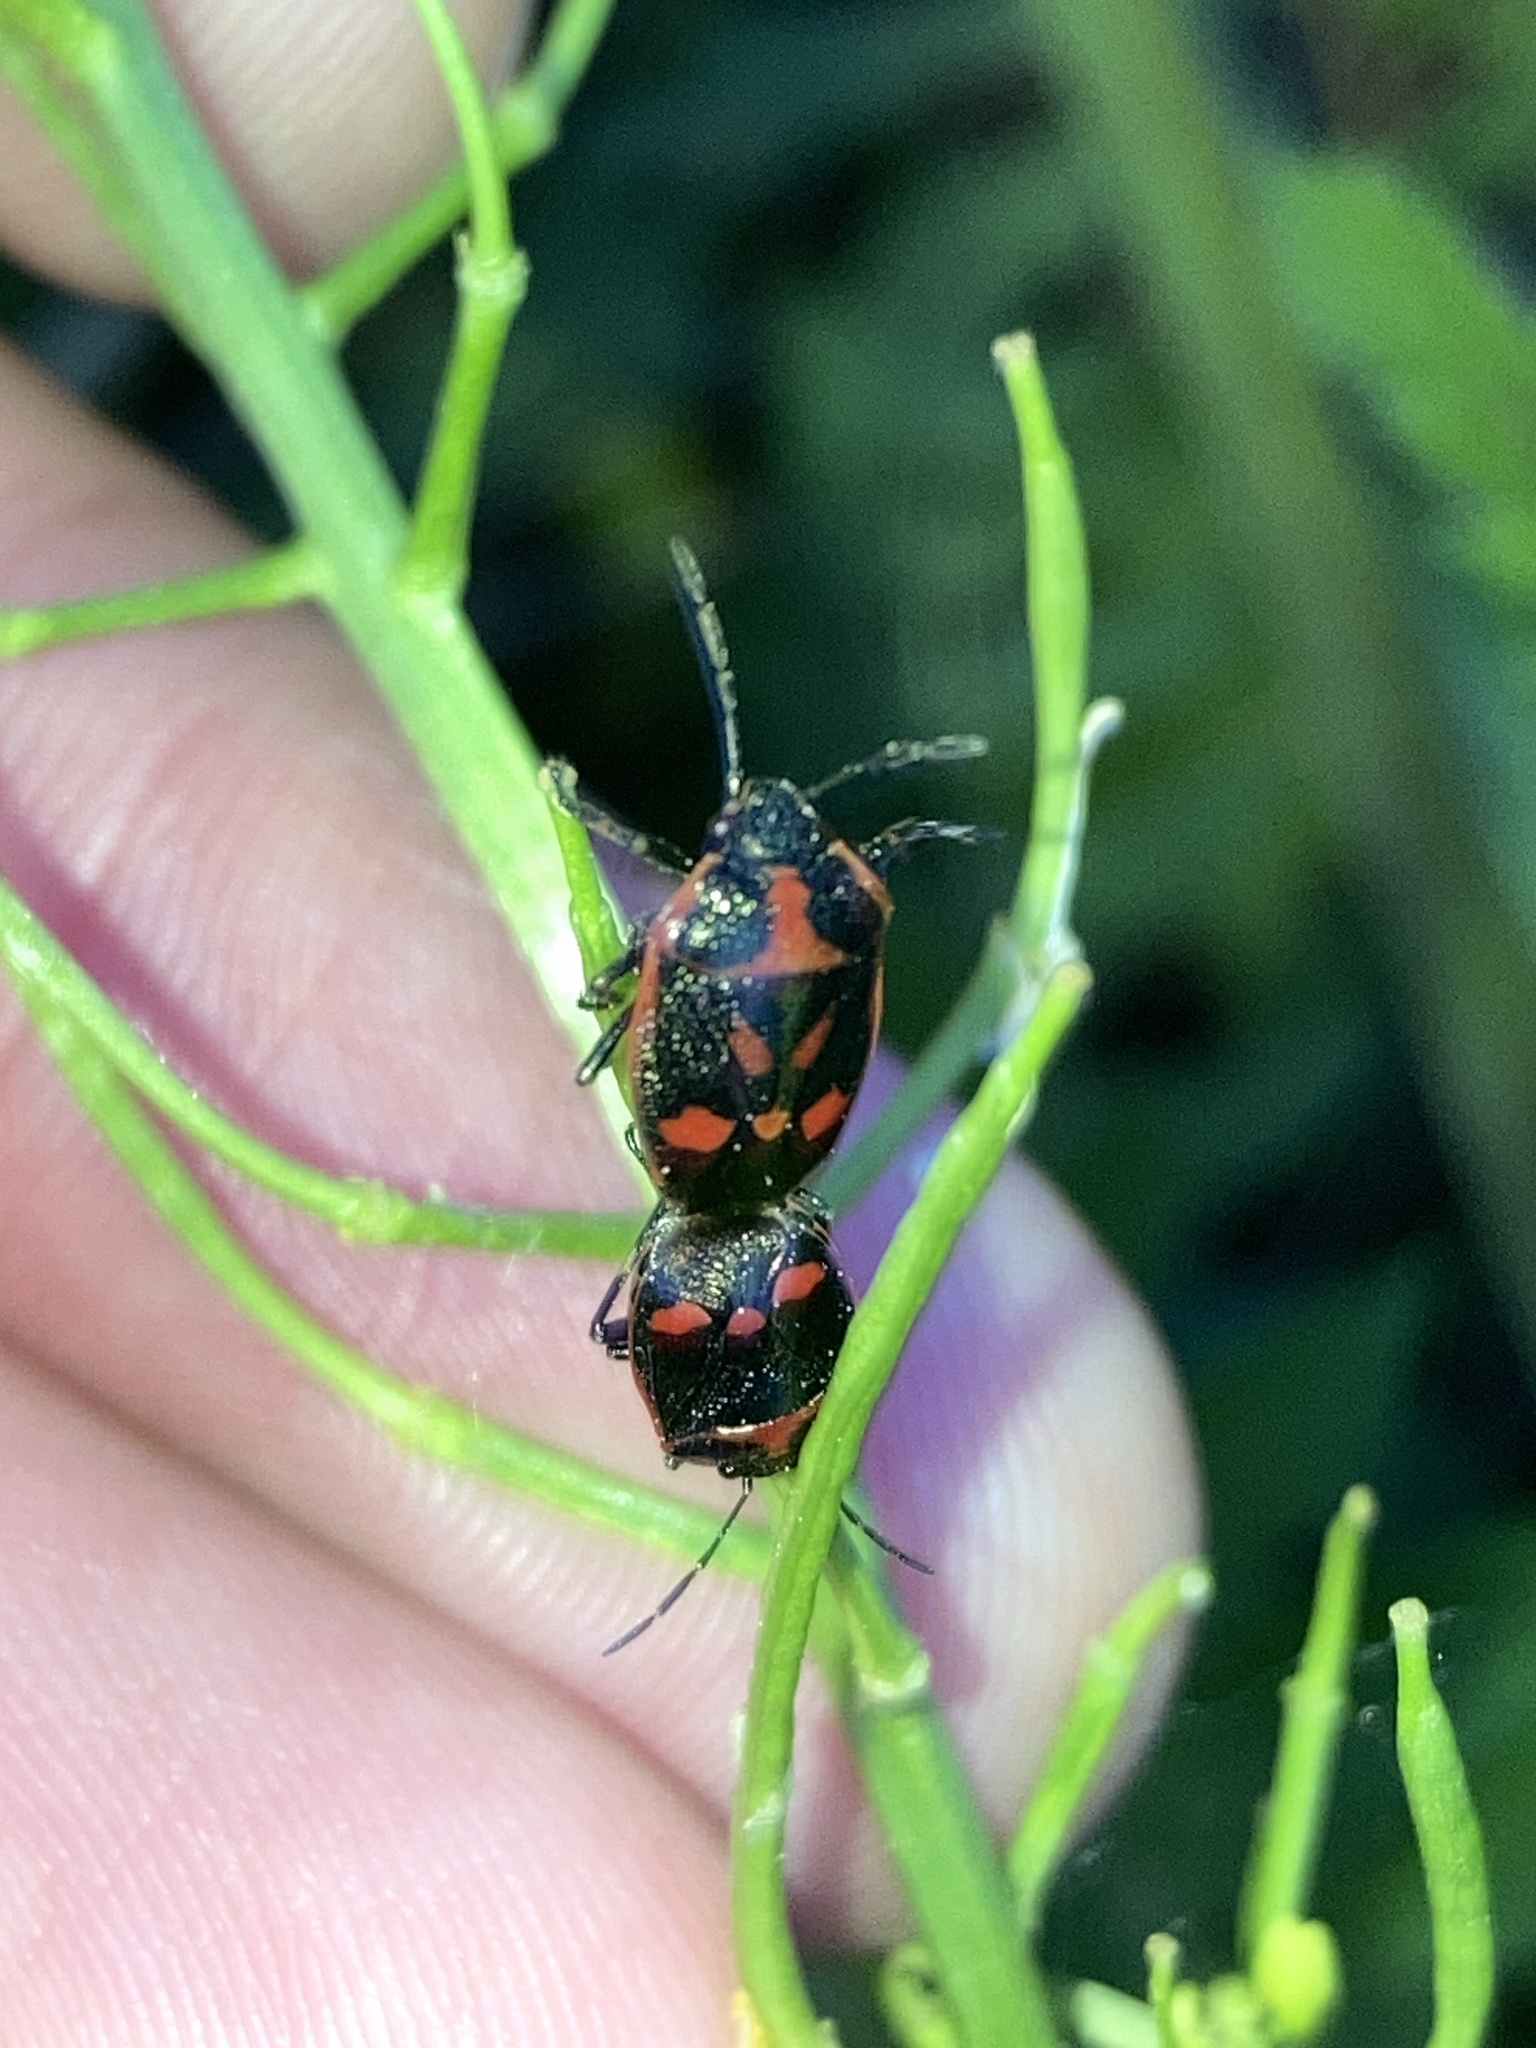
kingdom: Animalia
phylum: Arthropoda
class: Insecta
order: Hemiptera
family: Pentatomidae
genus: Eurydema
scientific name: Eurydema oleracea
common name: Cabbage bug
